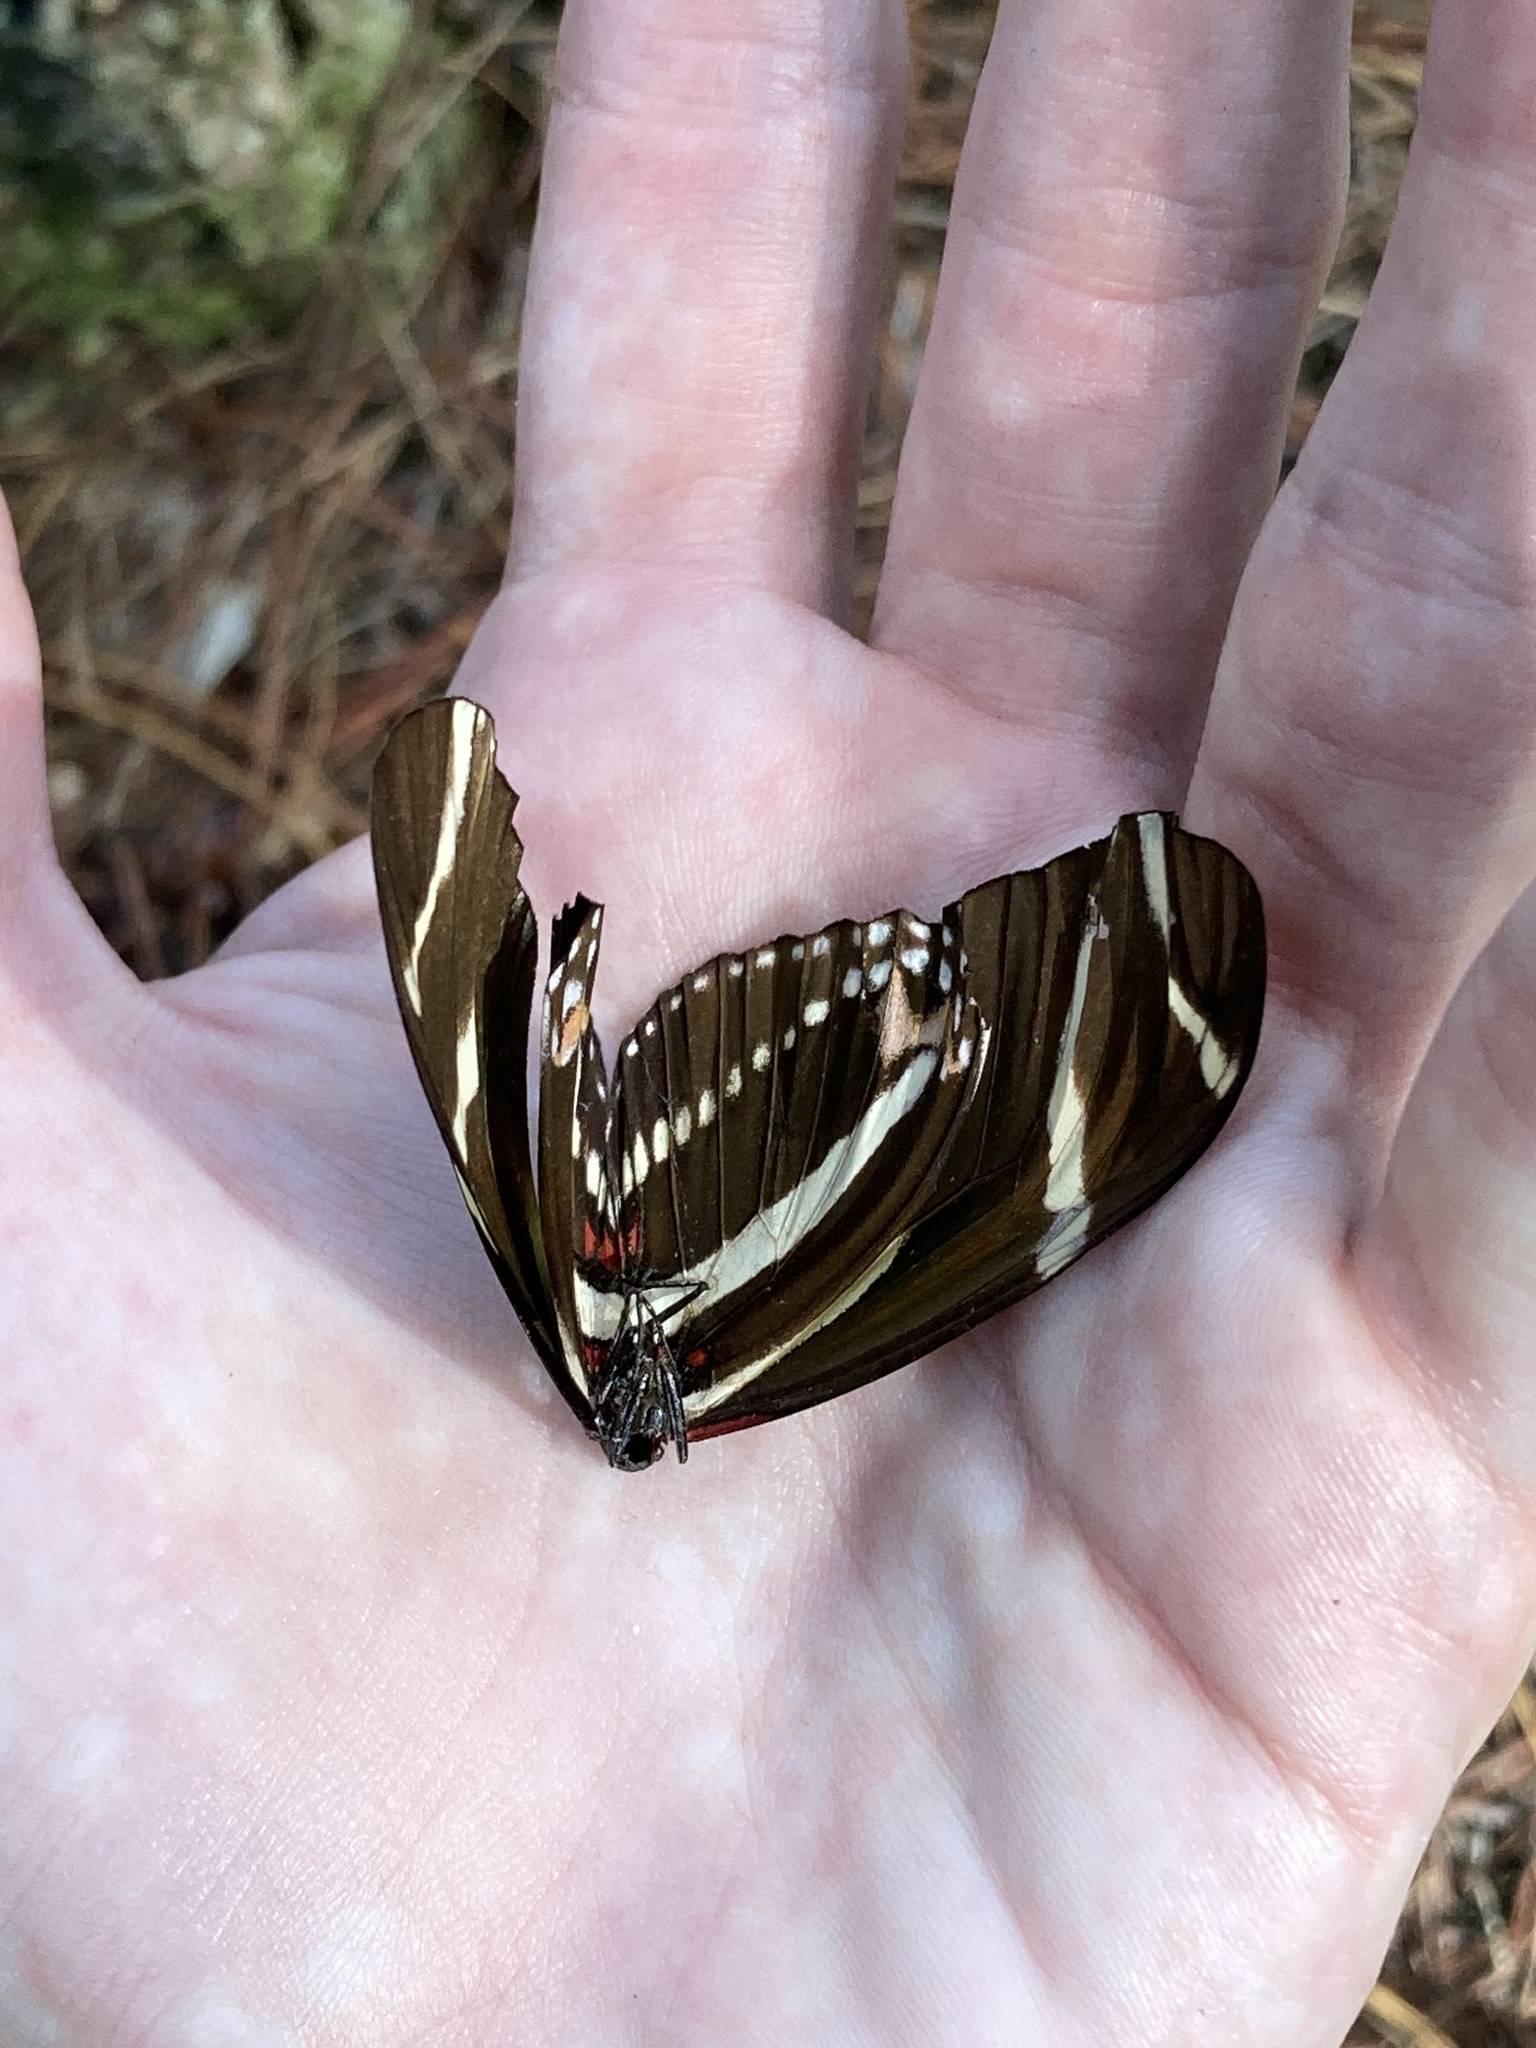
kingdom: Animalia
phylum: Arthropoda
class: Insecta
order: Lepidoptera
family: Nymphalidae
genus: Heliconius
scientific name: Heliconius charithonia
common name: Zebra long wing
